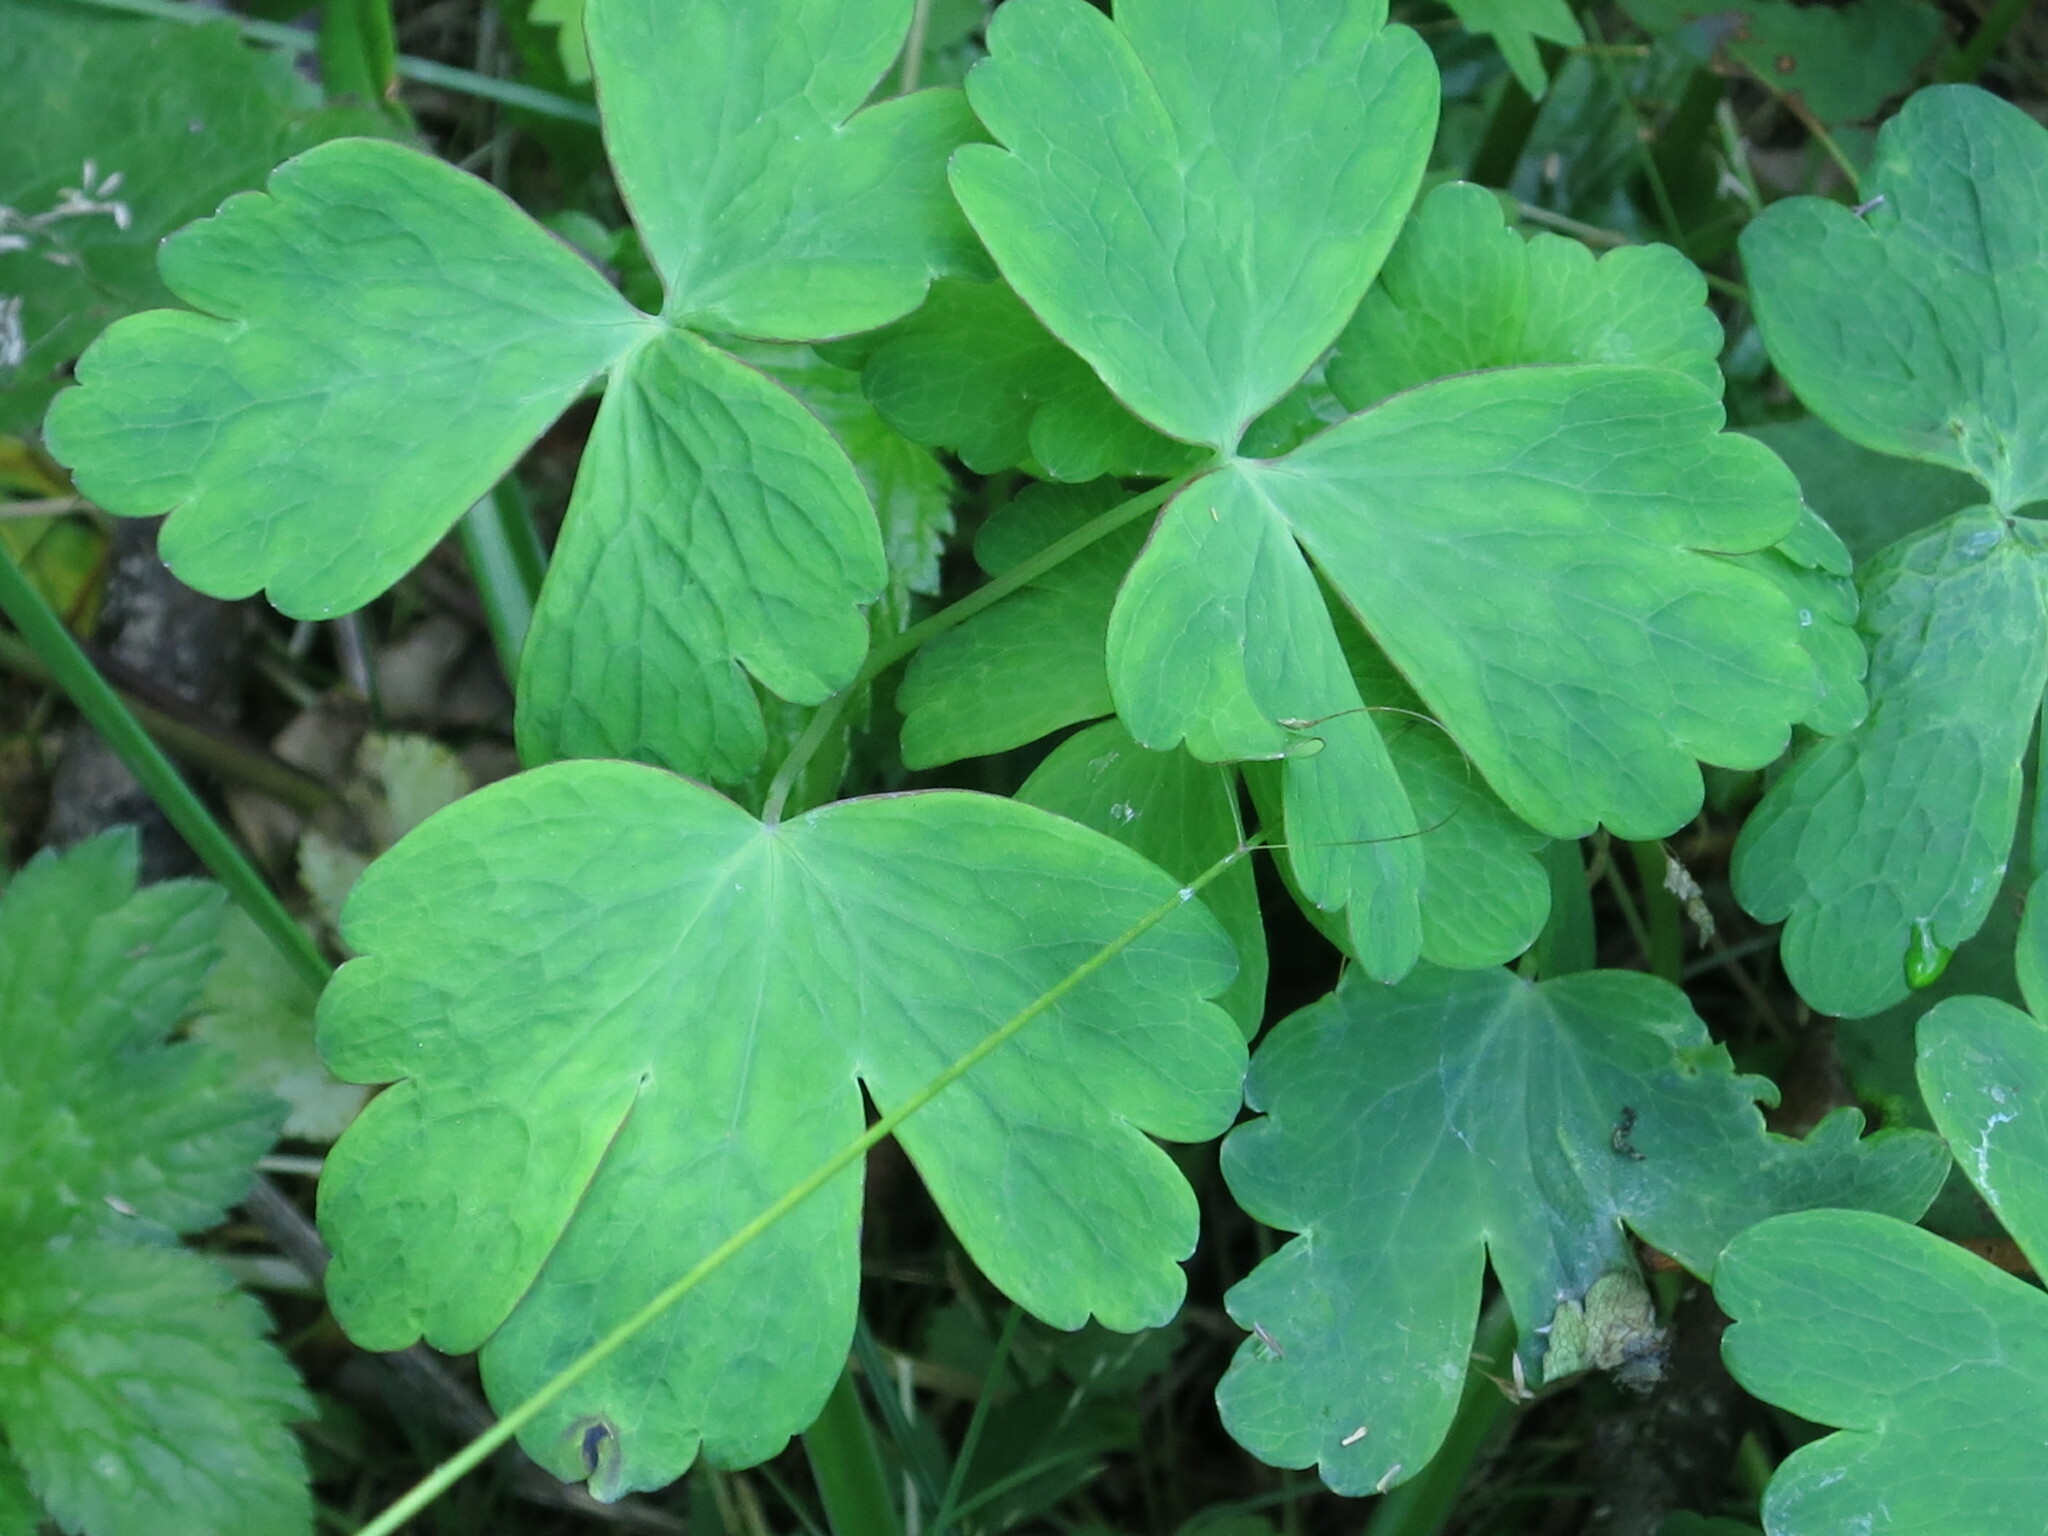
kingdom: Plantae
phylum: Tracheophyta
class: Magnoliopsida
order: Ranunculales
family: Ranunculaceae
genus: Aquilegia
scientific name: Aquilegia oxysepala
